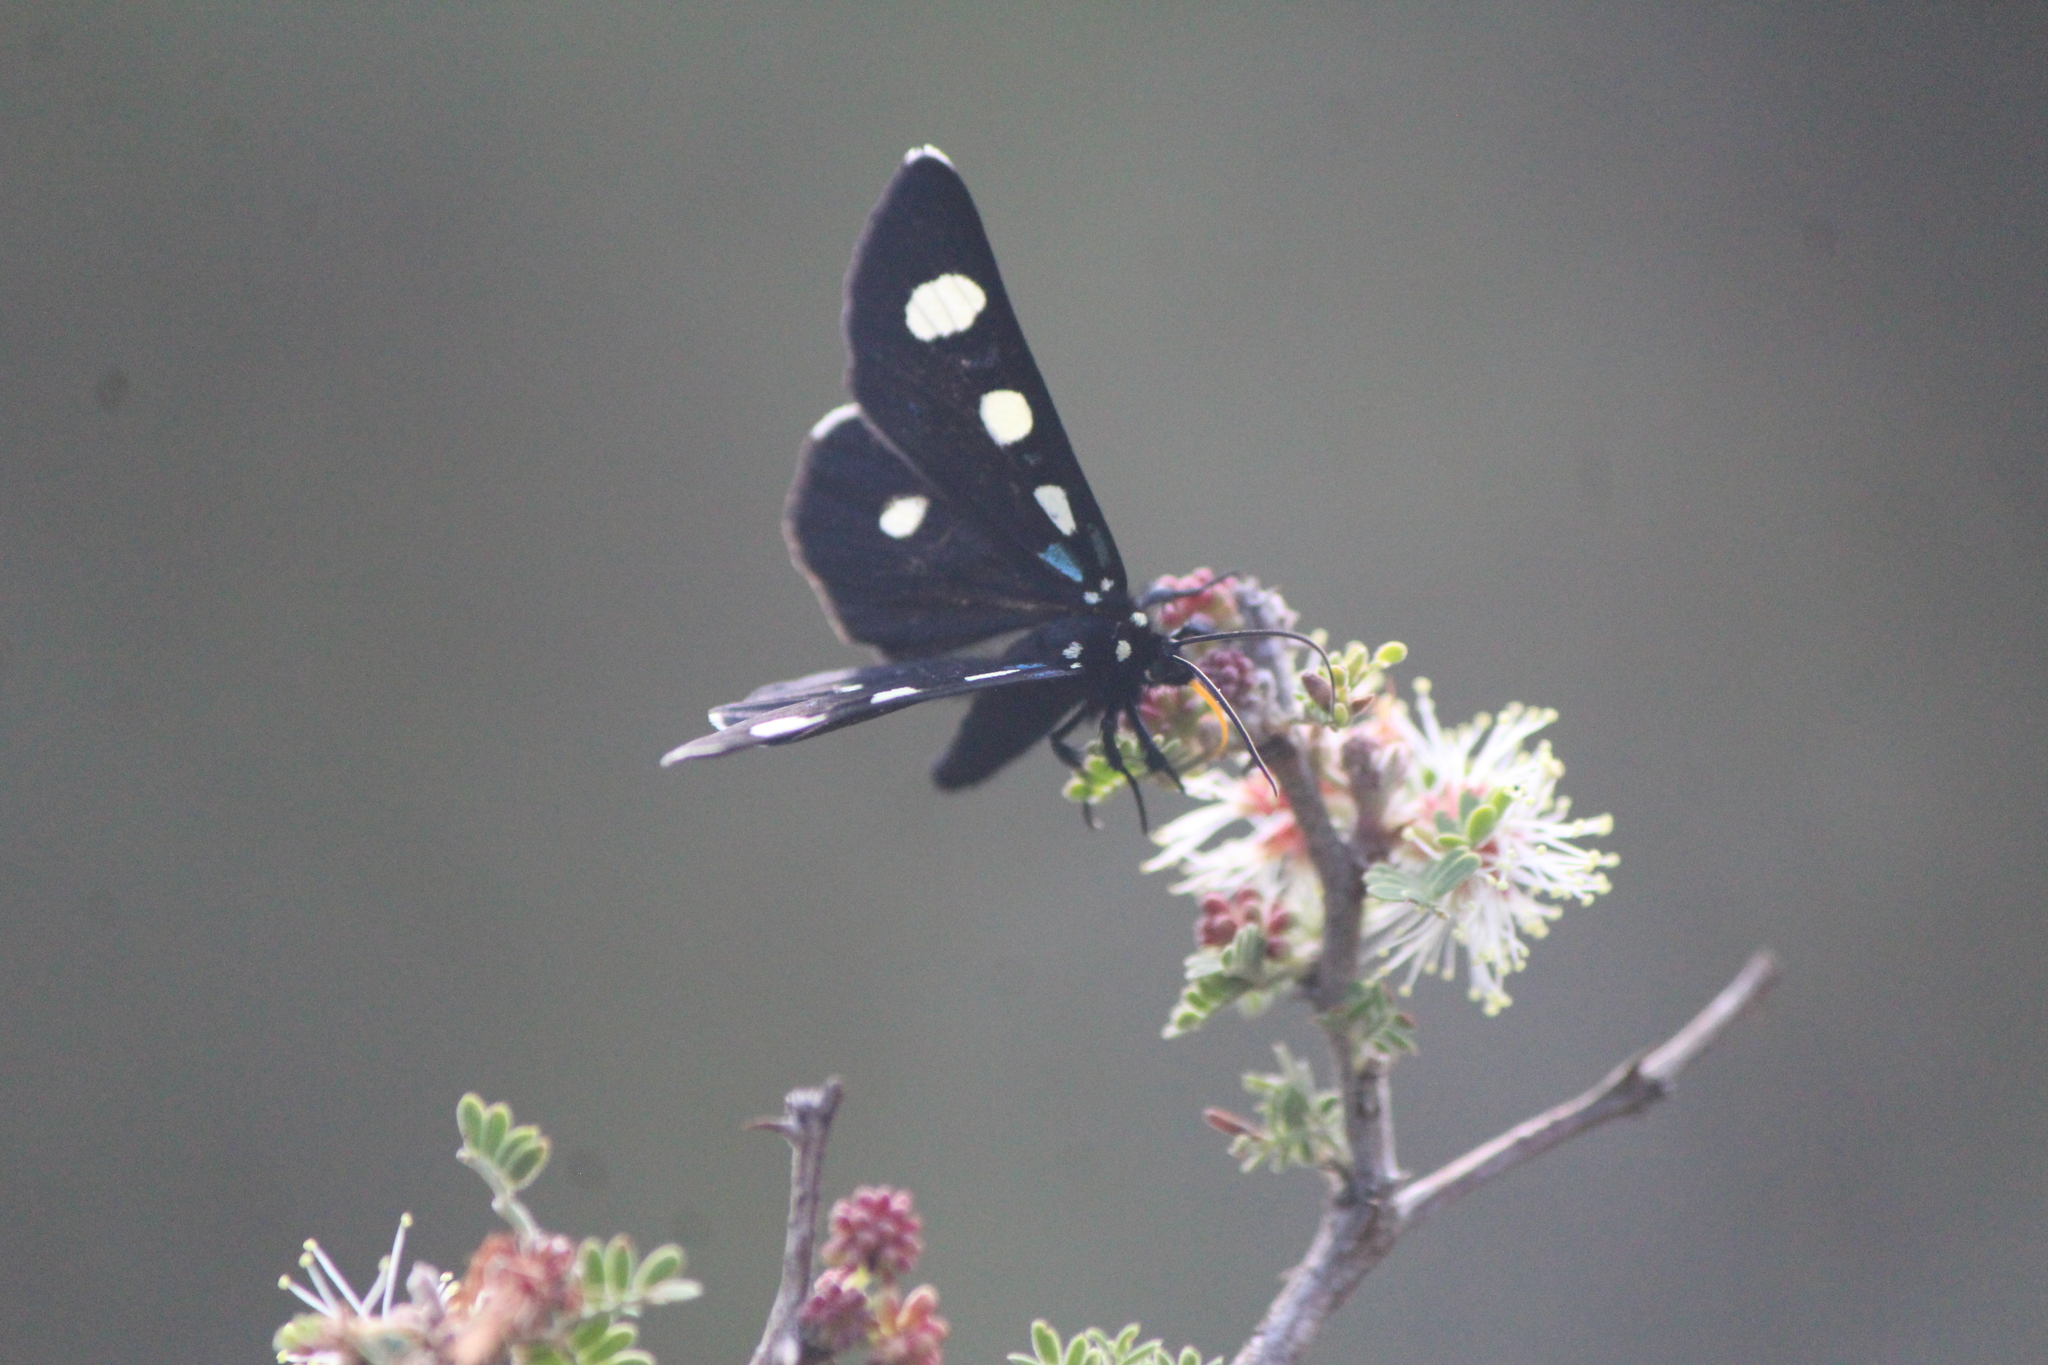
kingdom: Animalia
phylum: Arthropoda
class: Insecta
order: Lepidoptera
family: Noctuidae
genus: Alypiodes
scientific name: Alypiodes bimaculata
